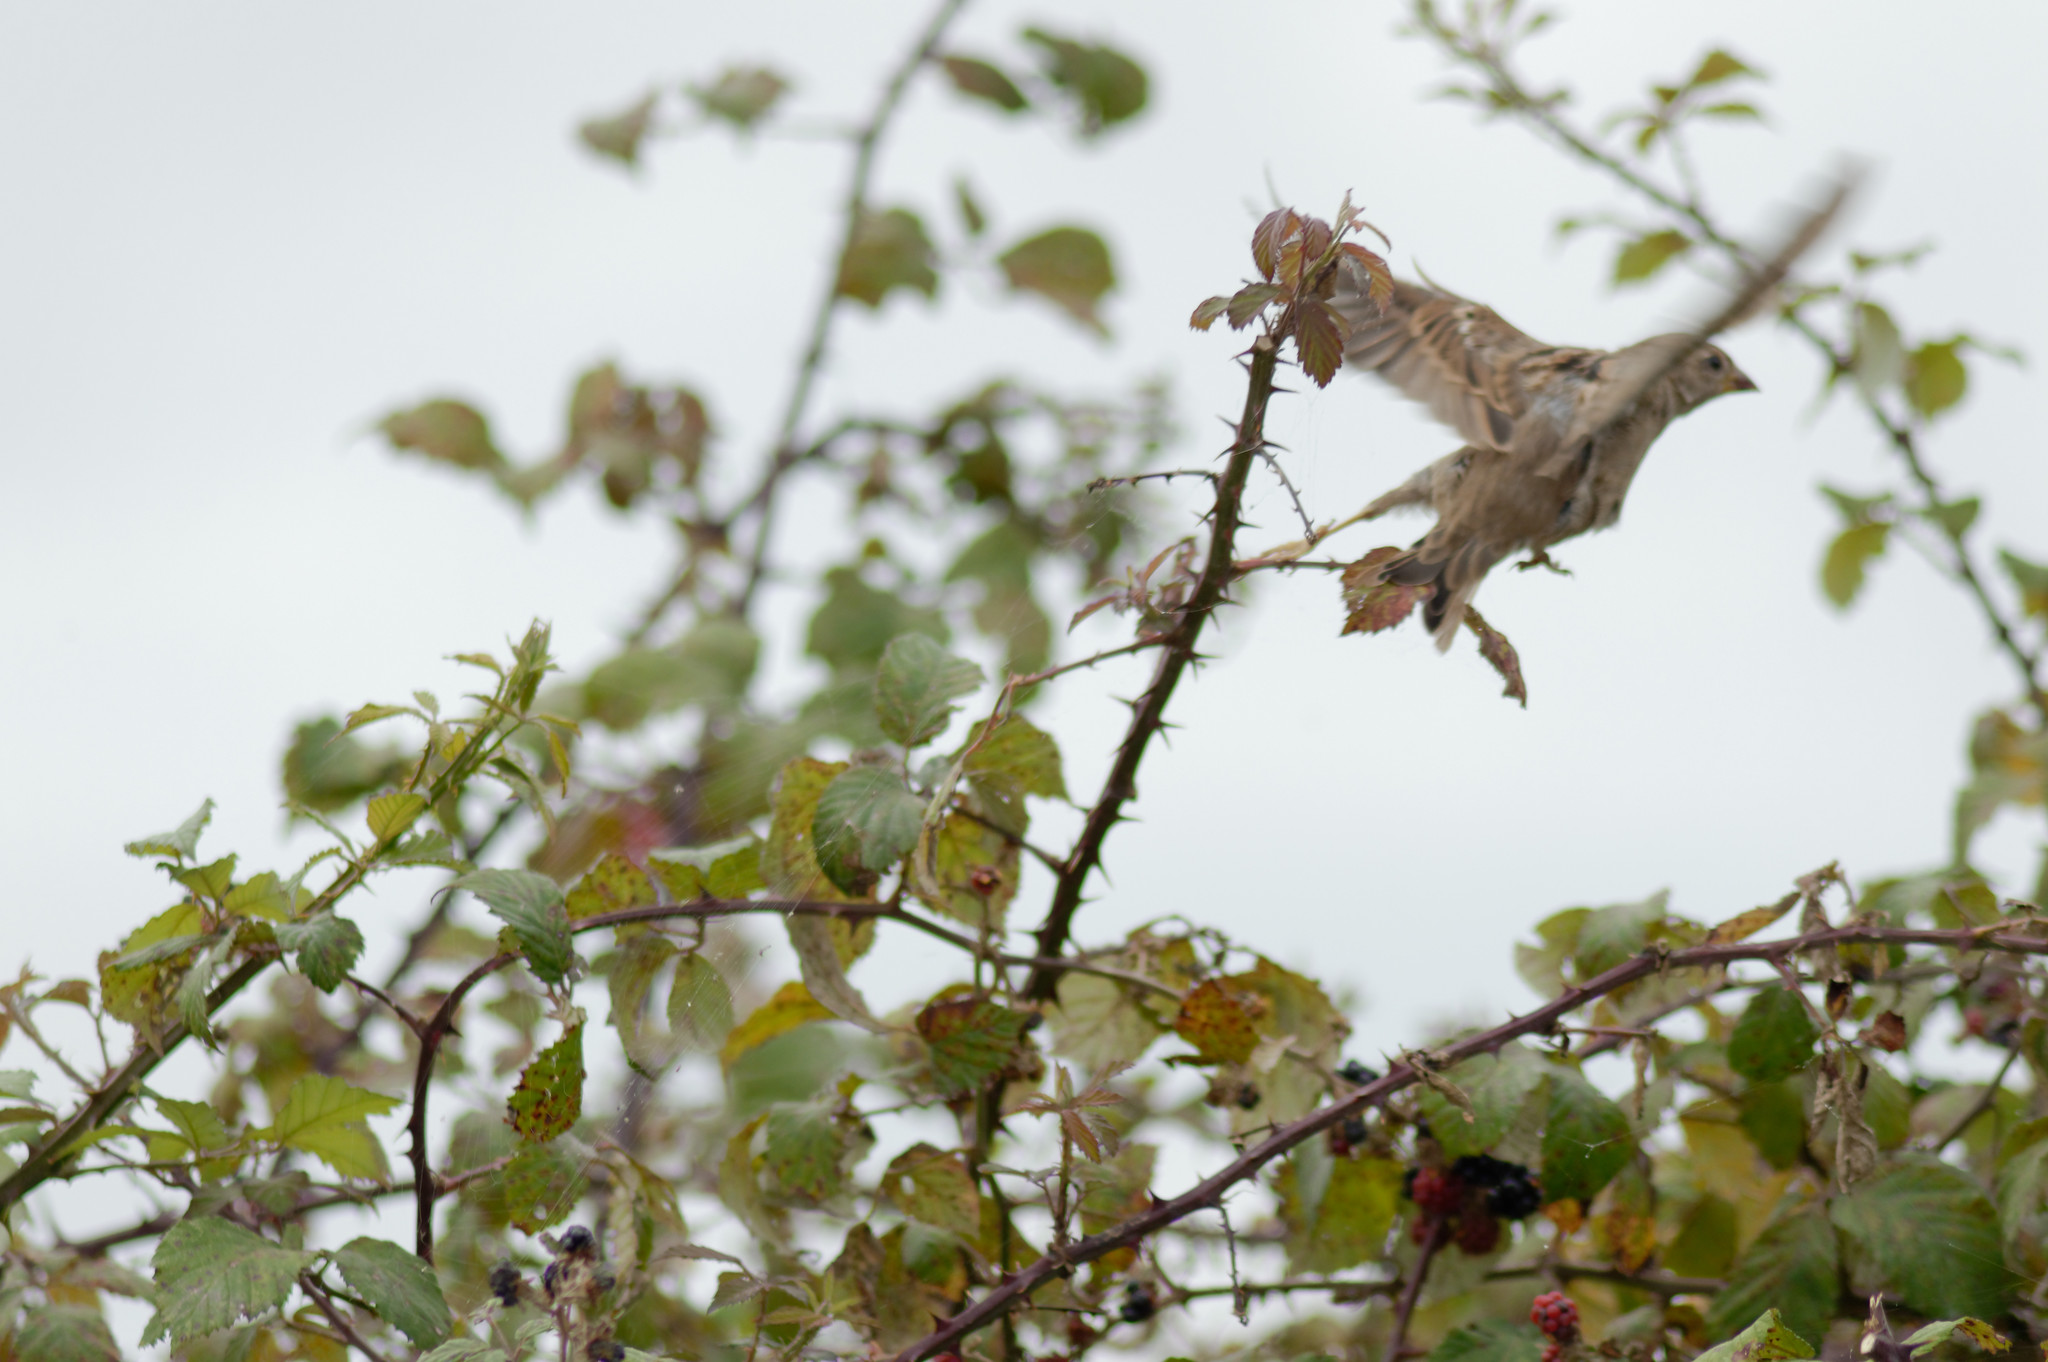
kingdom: Animalia
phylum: Chordata
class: Aves
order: Passeriformes
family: Passeridae
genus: Passer
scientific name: Passer domesticus
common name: House sparrow
